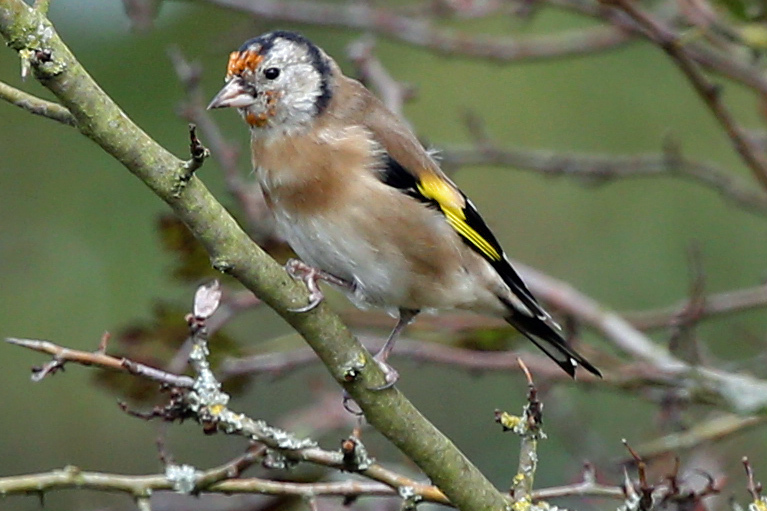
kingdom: Animalia
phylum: Chordata
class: Aves
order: Passeriformes
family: Fringillidae
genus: Carduelis
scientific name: Carduelis carduelis
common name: European goldfinch
